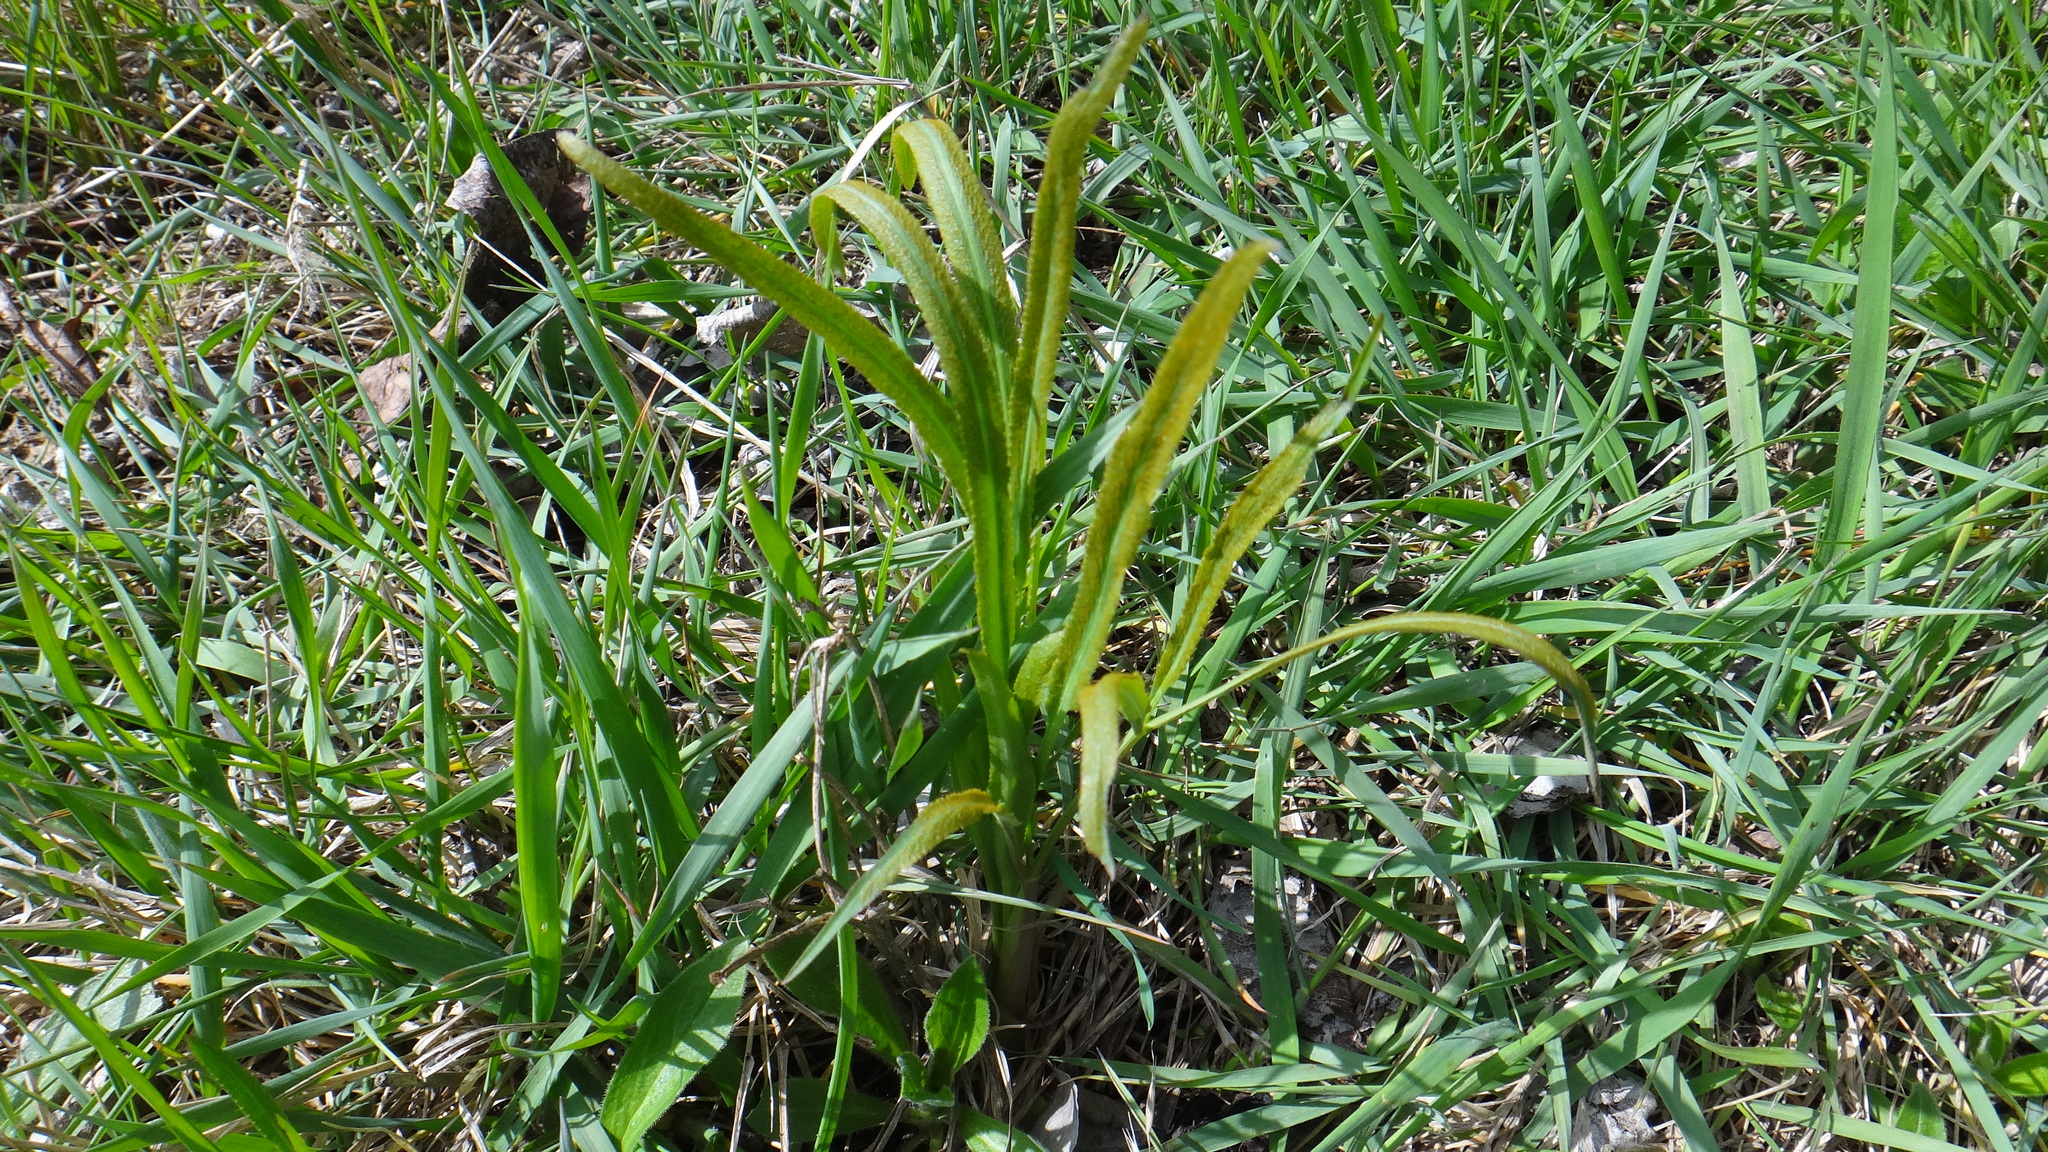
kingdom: Plantae
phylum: Tracheophyta
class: Magnoliopsida
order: Apiales
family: Apiaceae
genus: Falcaria
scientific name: Falcaria vulgaris
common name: Longleaf
